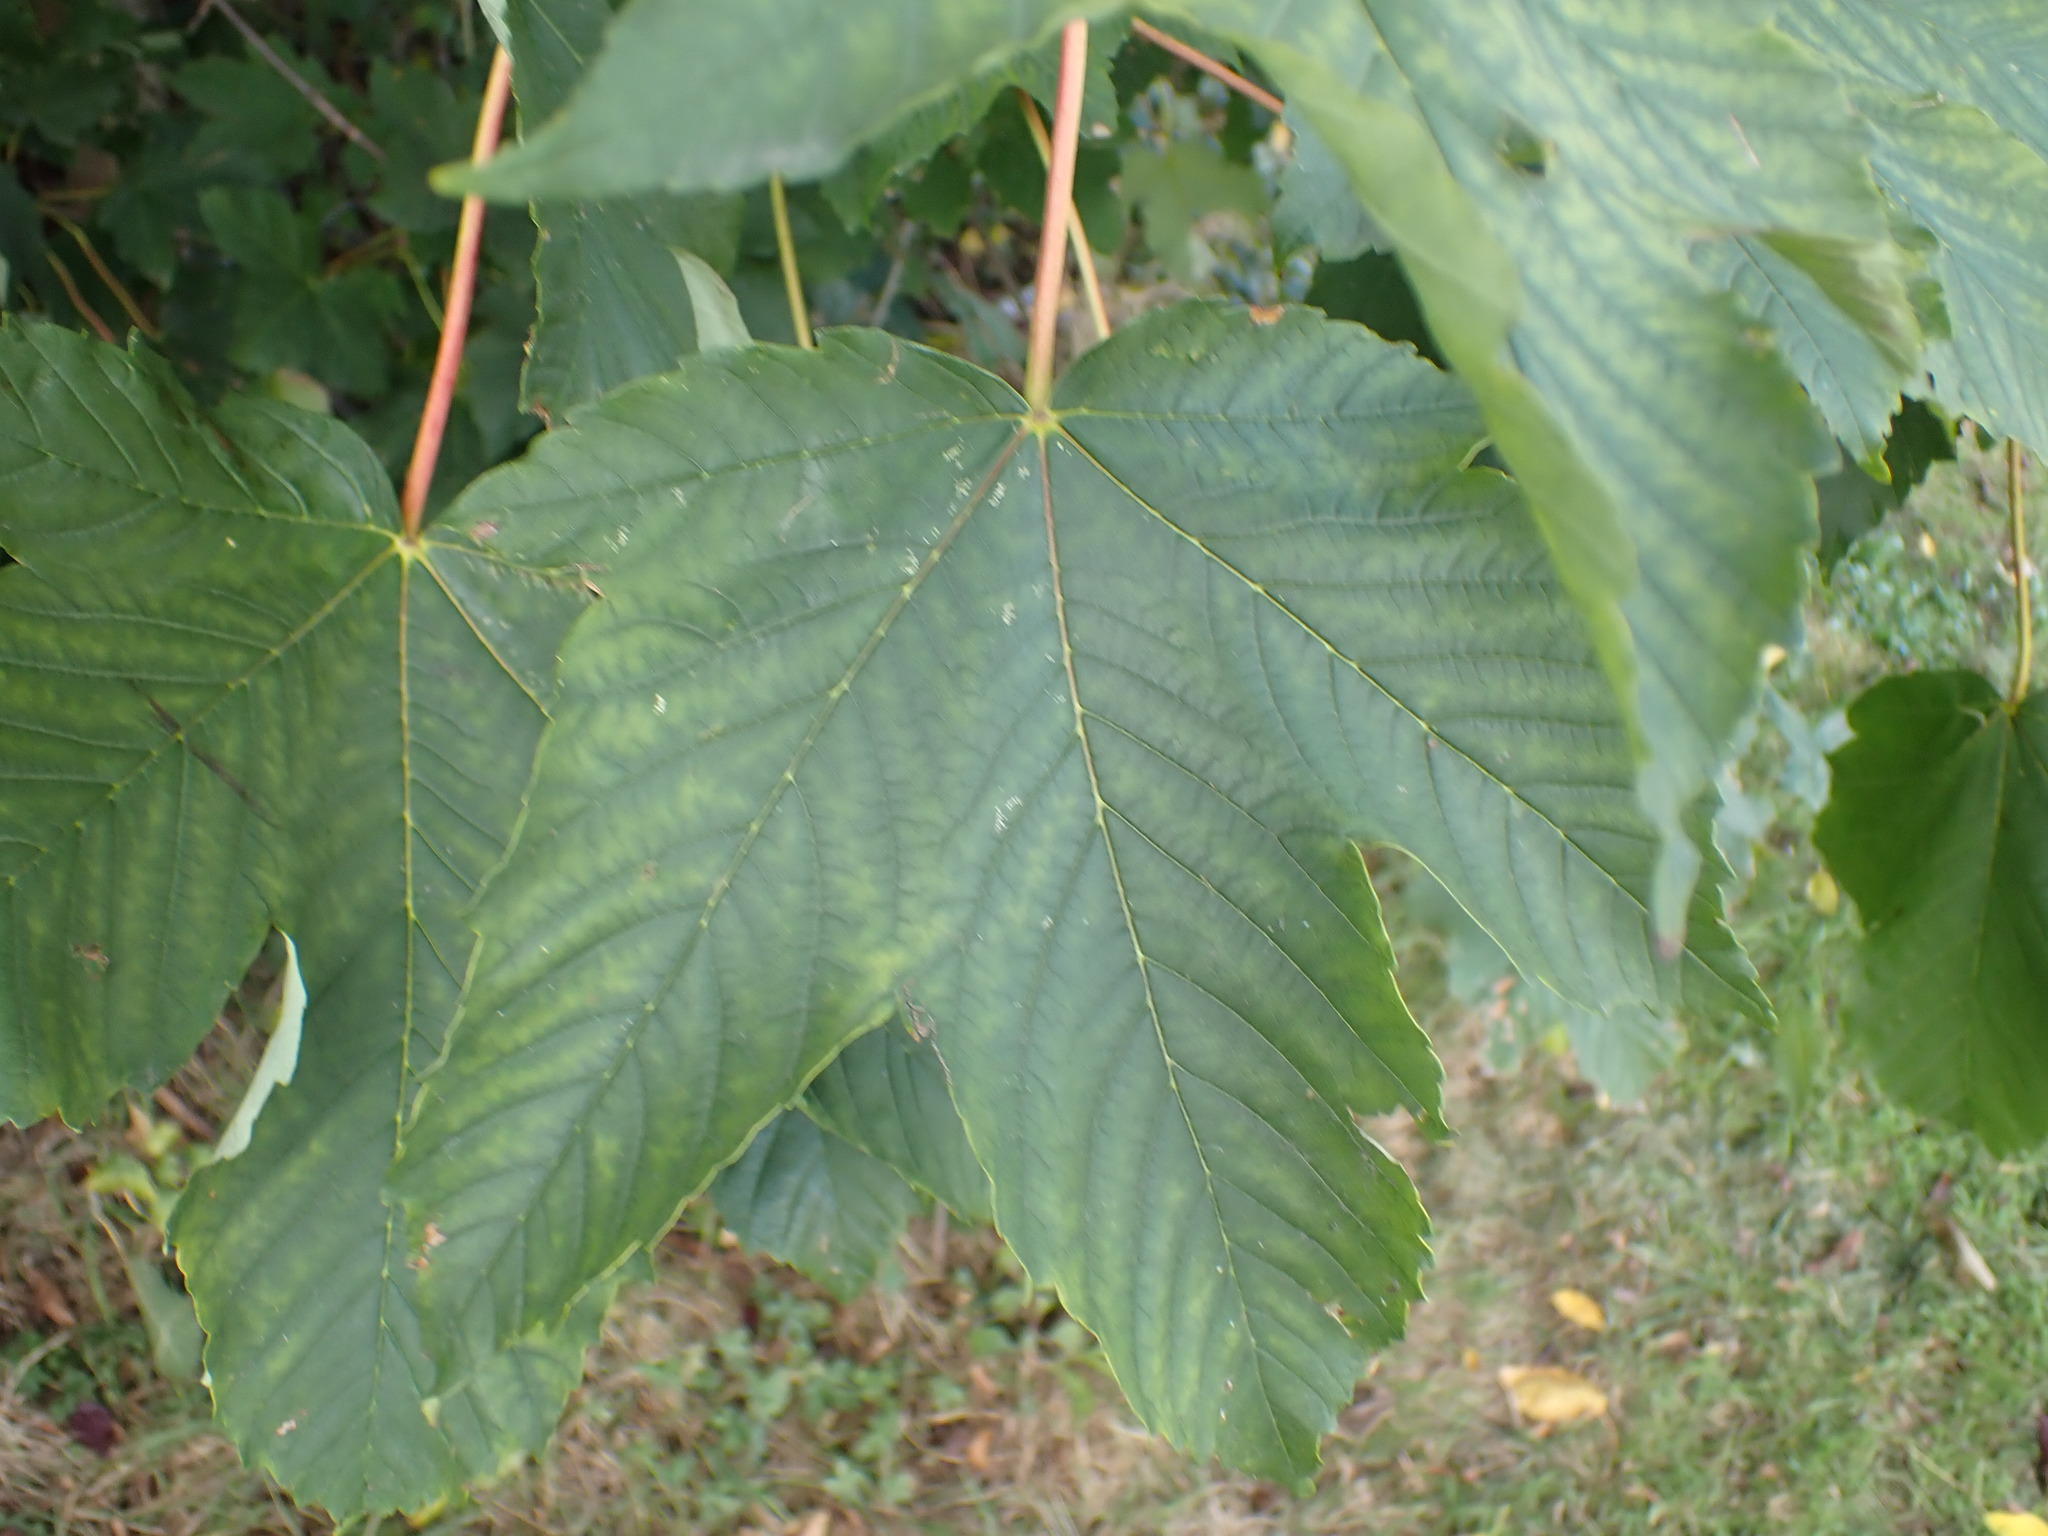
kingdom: Plantae
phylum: Tracheophyta
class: Magnoliopsida
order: Sapindales
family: Sapindaceae
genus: Acer
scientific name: Acer pseudoplatanus
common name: Sycamore
